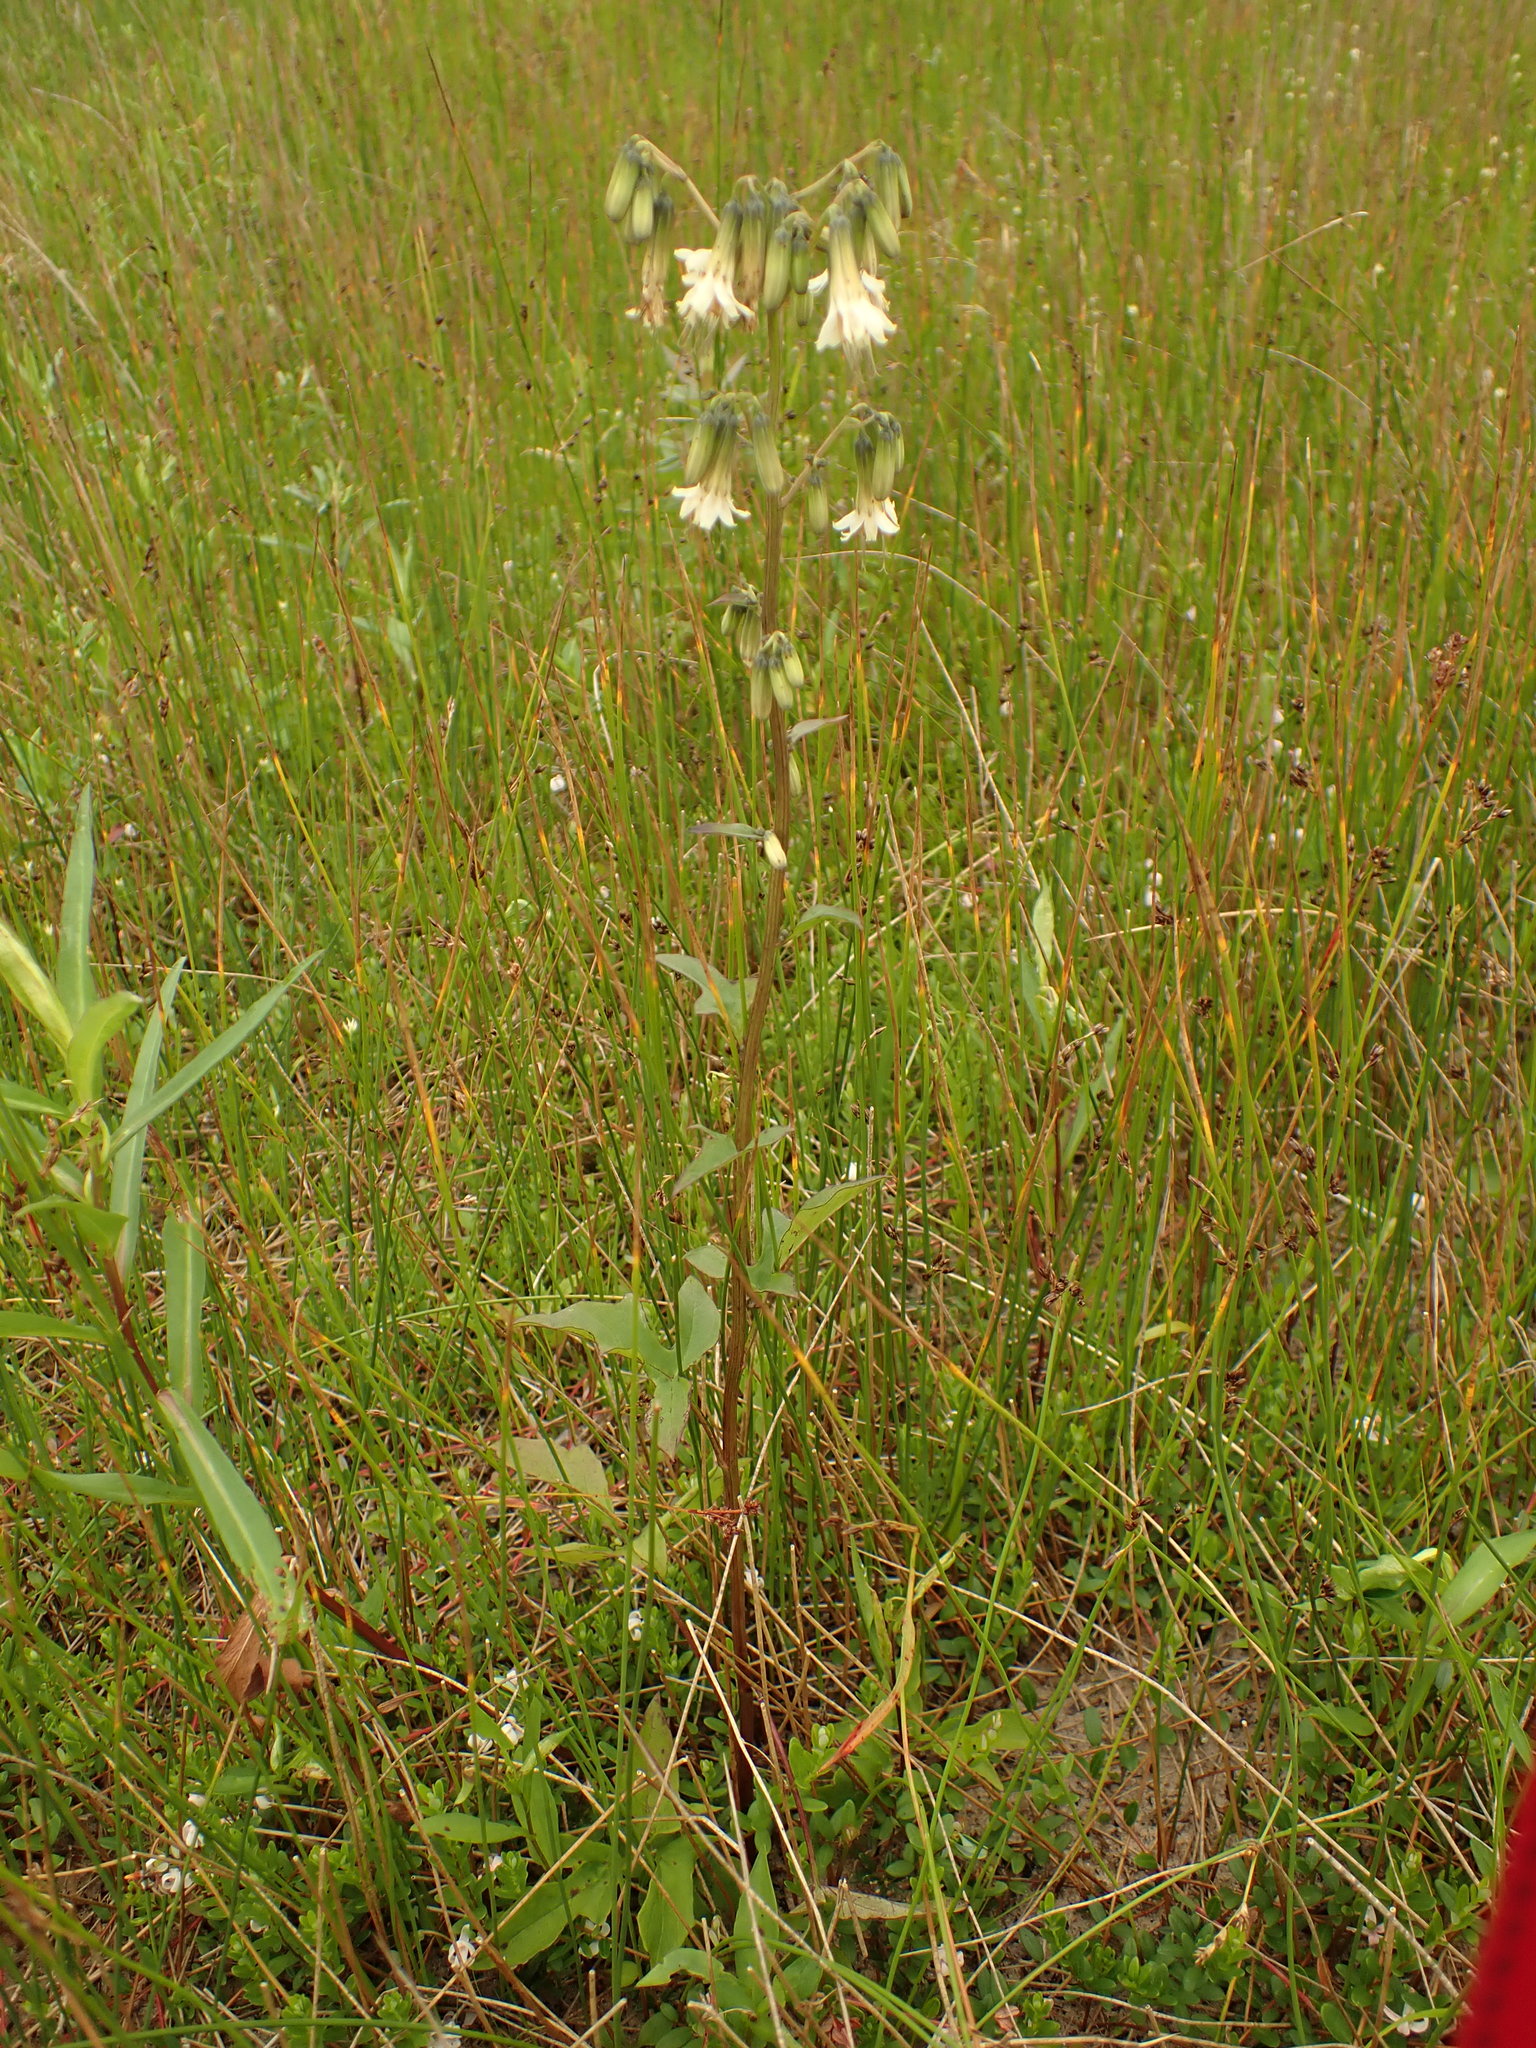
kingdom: Plantae
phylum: Tracheophyta
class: Magnoliopsida
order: Asterales
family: Asteraceae
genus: Nabalus
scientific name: Nabalus trifoliolatus
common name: Gall-of-the-earth
